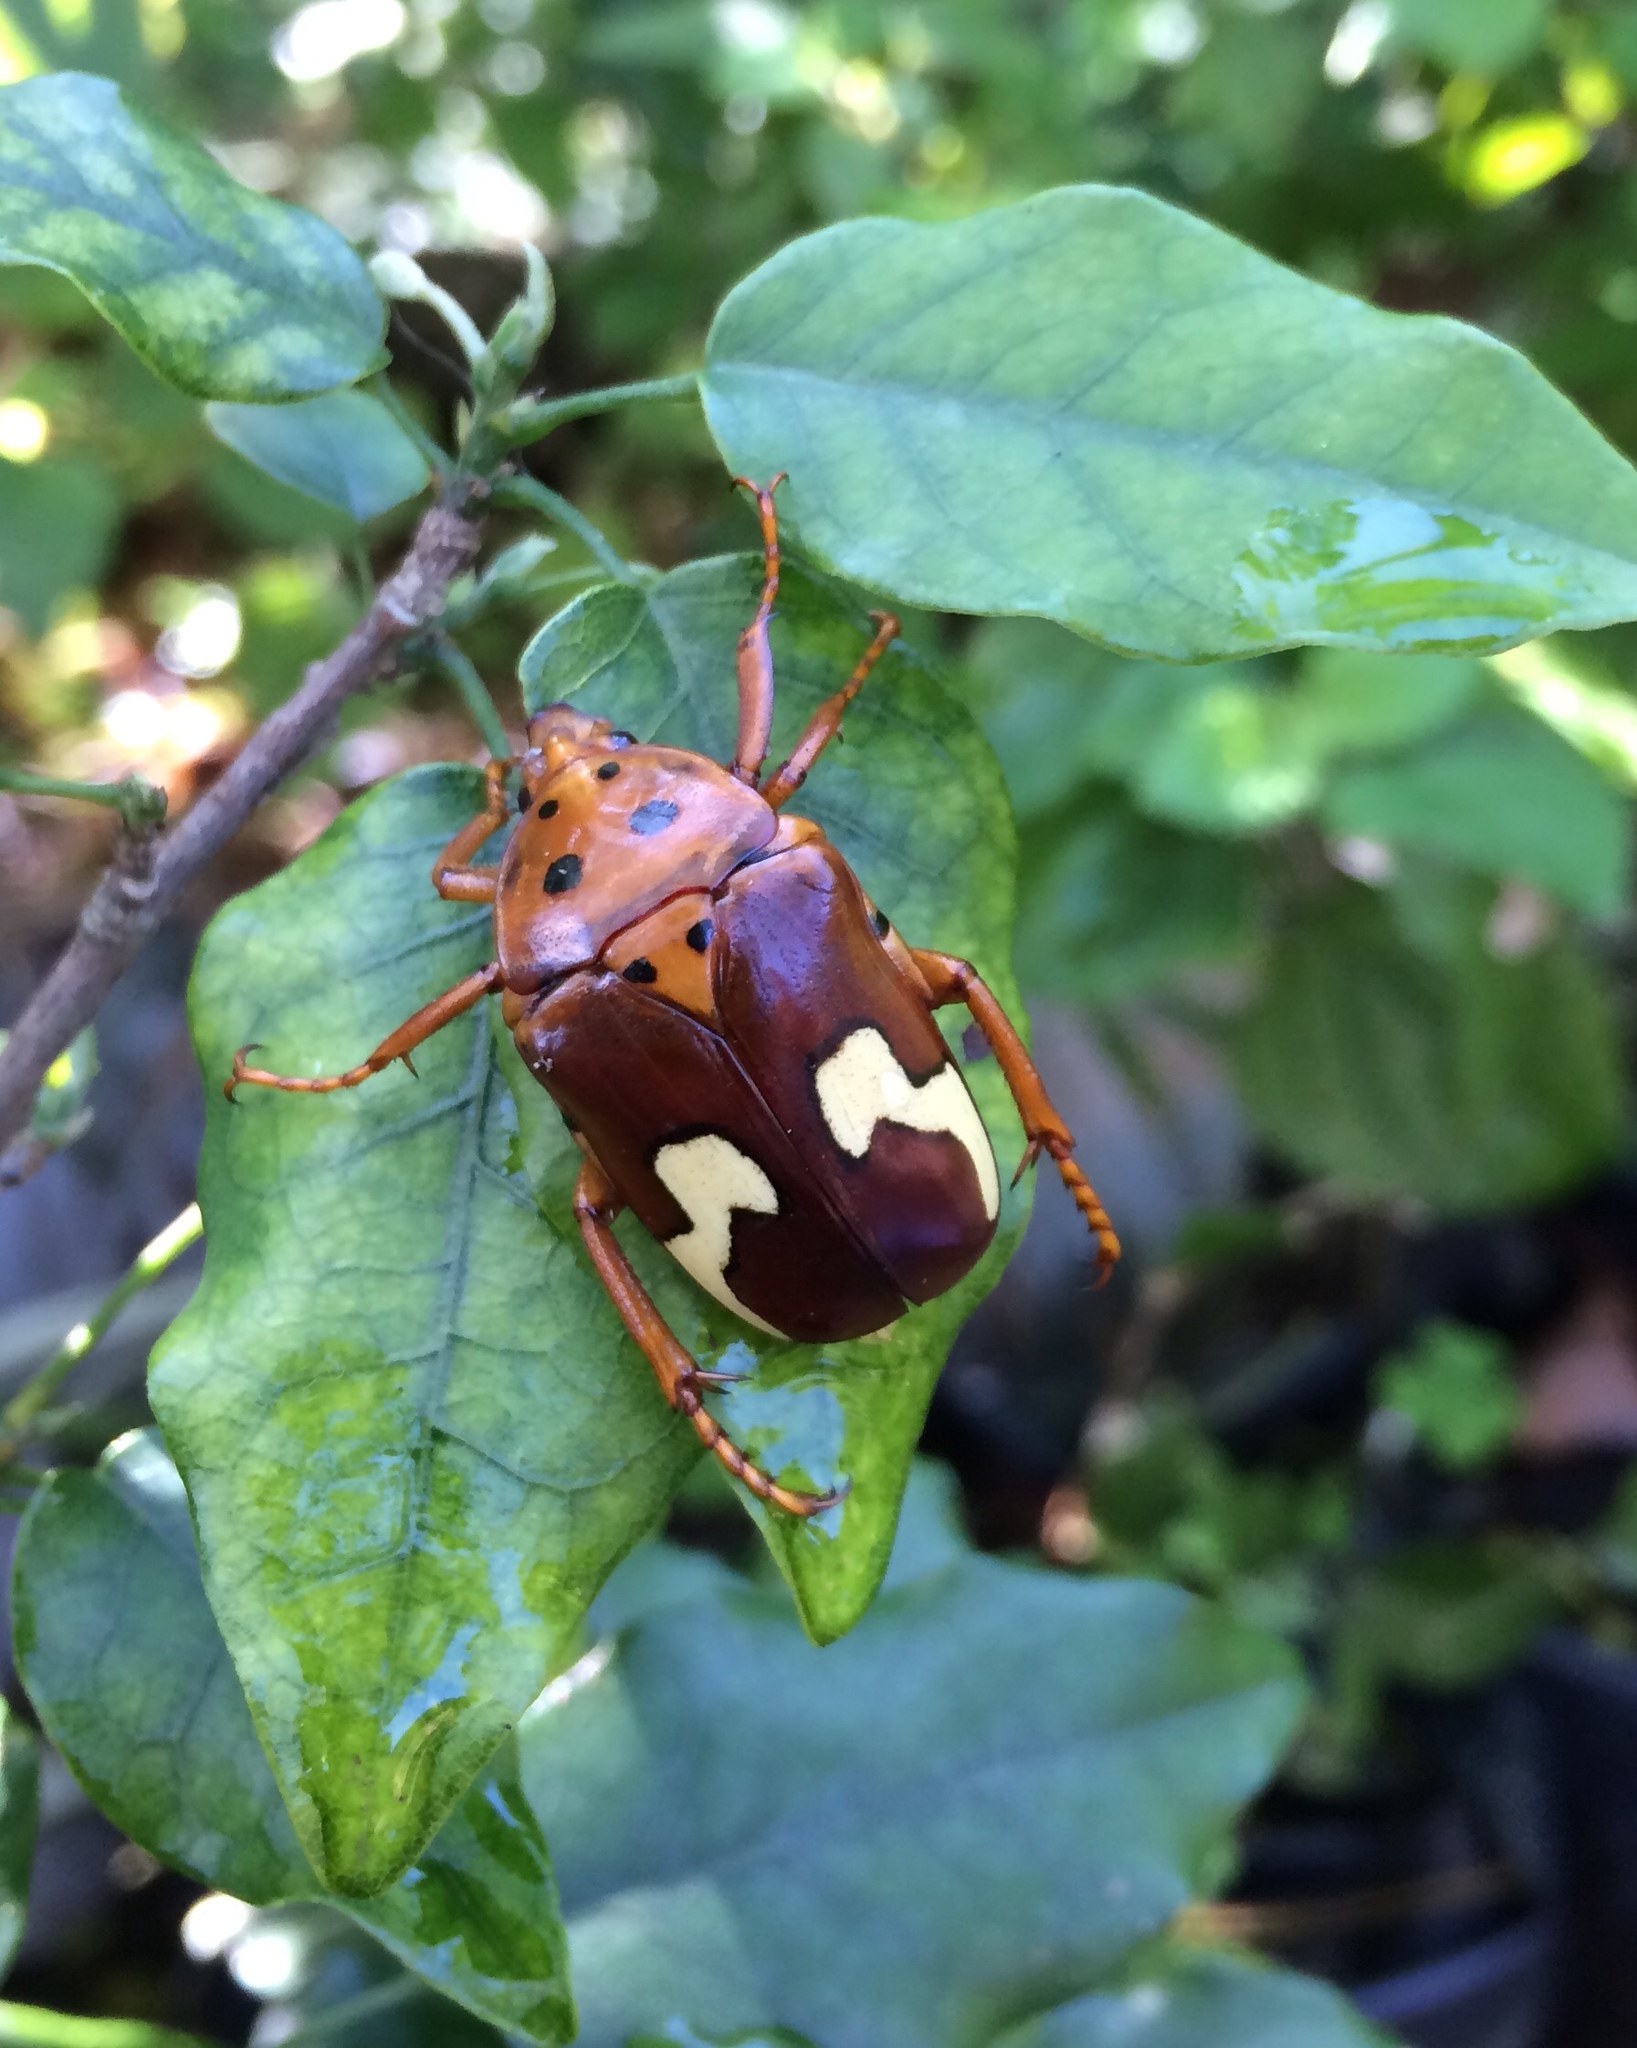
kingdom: Animalia
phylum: Arthropoda
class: Insecta
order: Coleoptera
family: Scarabaeidae
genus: Anisorrhina
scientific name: Anisorrhina flavomaculata
